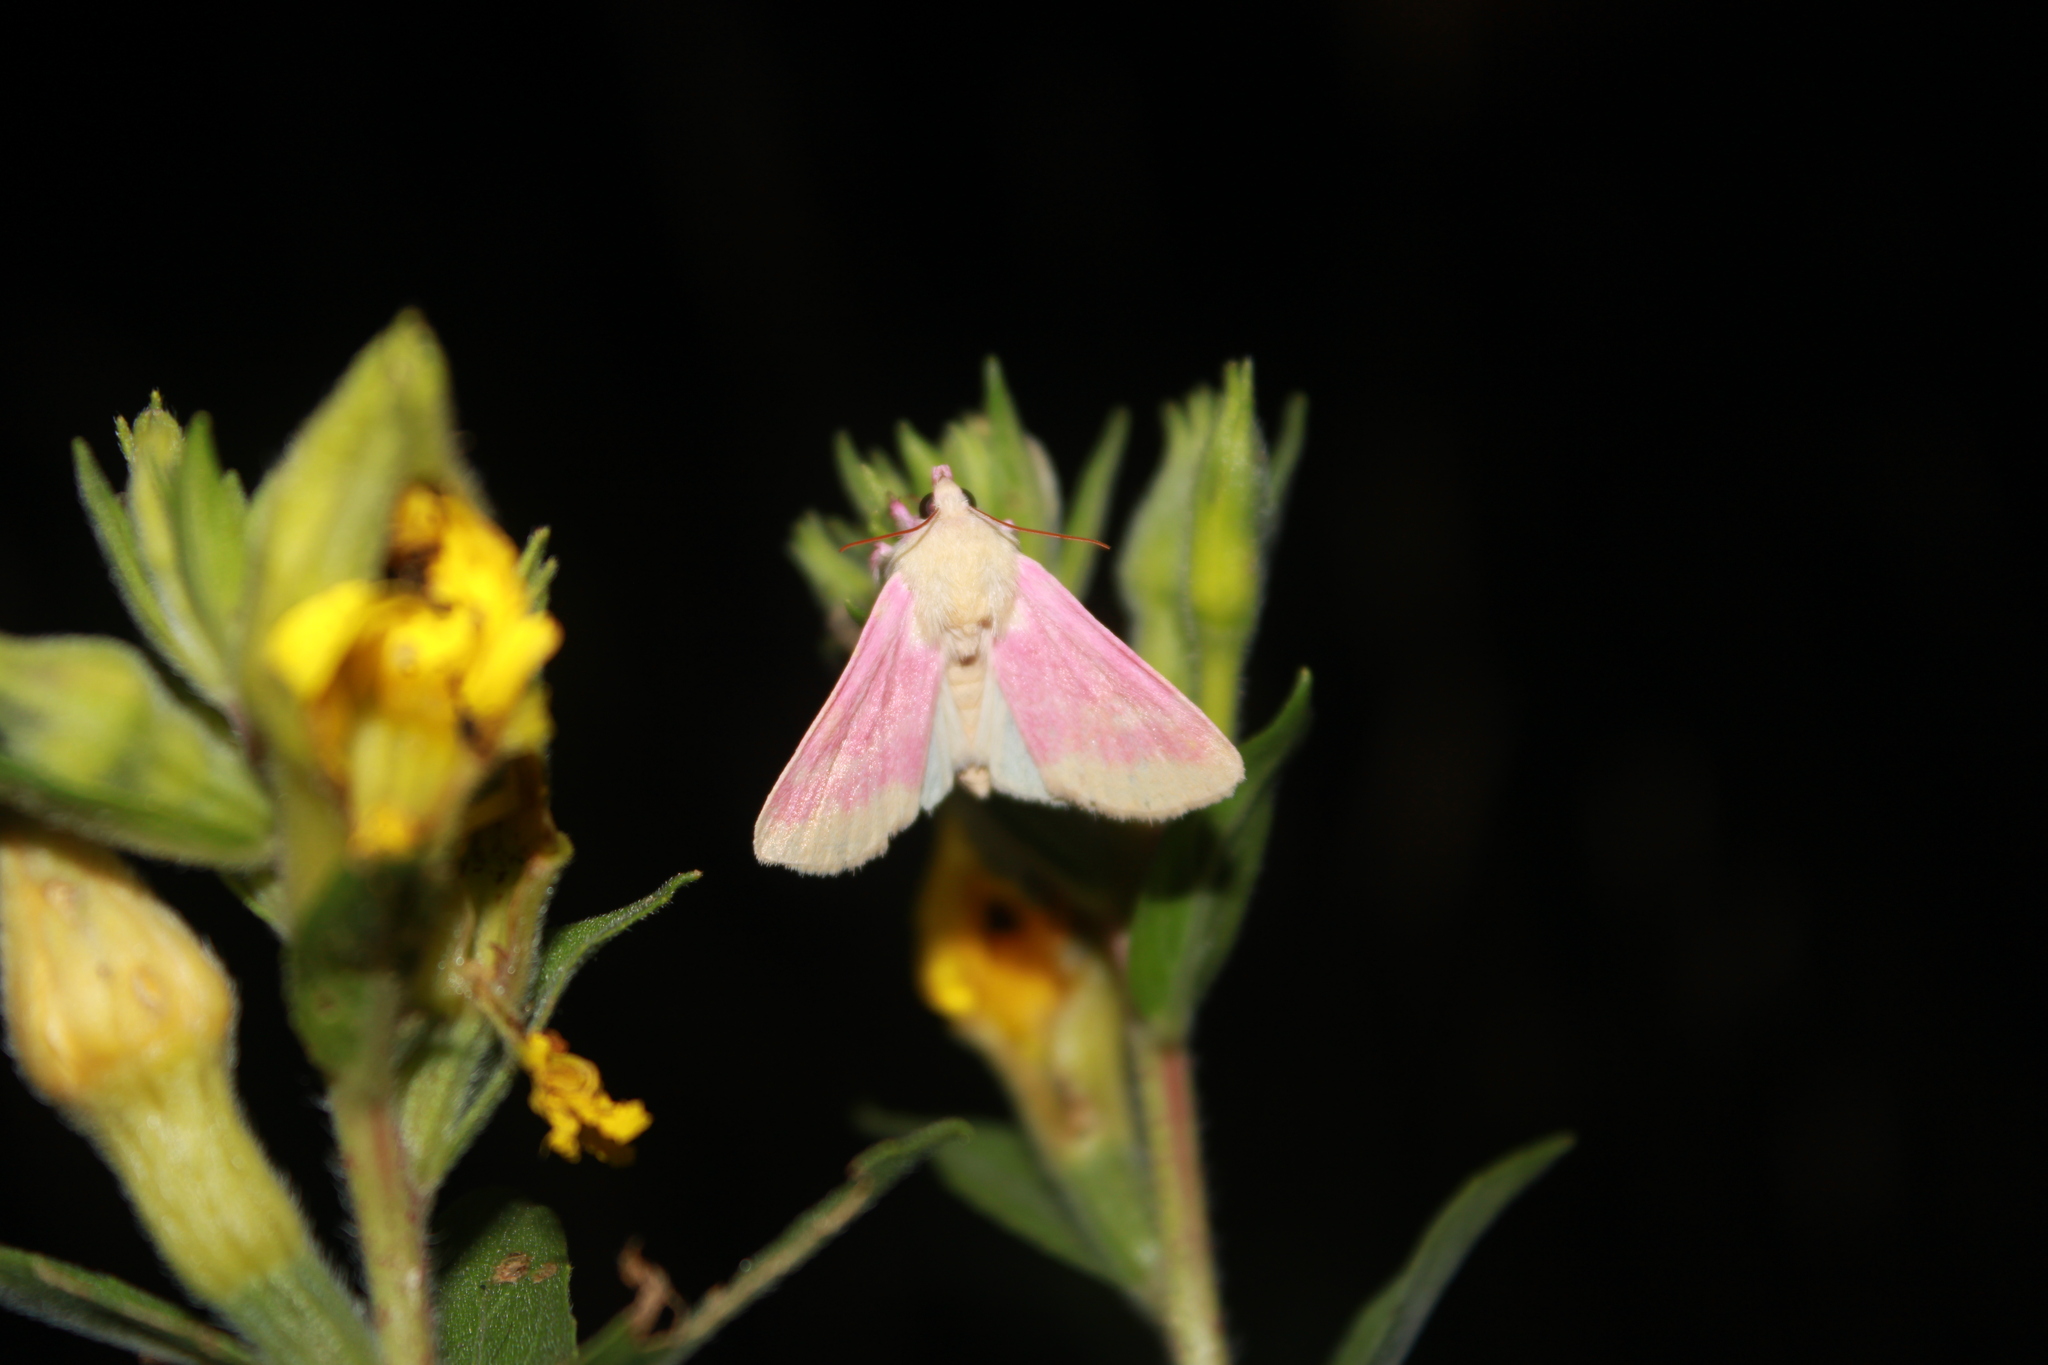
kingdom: Animalia
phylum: Arthropoda
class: Insecta
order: Lepidoptera
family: Noctuidae
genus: Schinia
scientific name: Schinia florida
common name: Primrose moth
